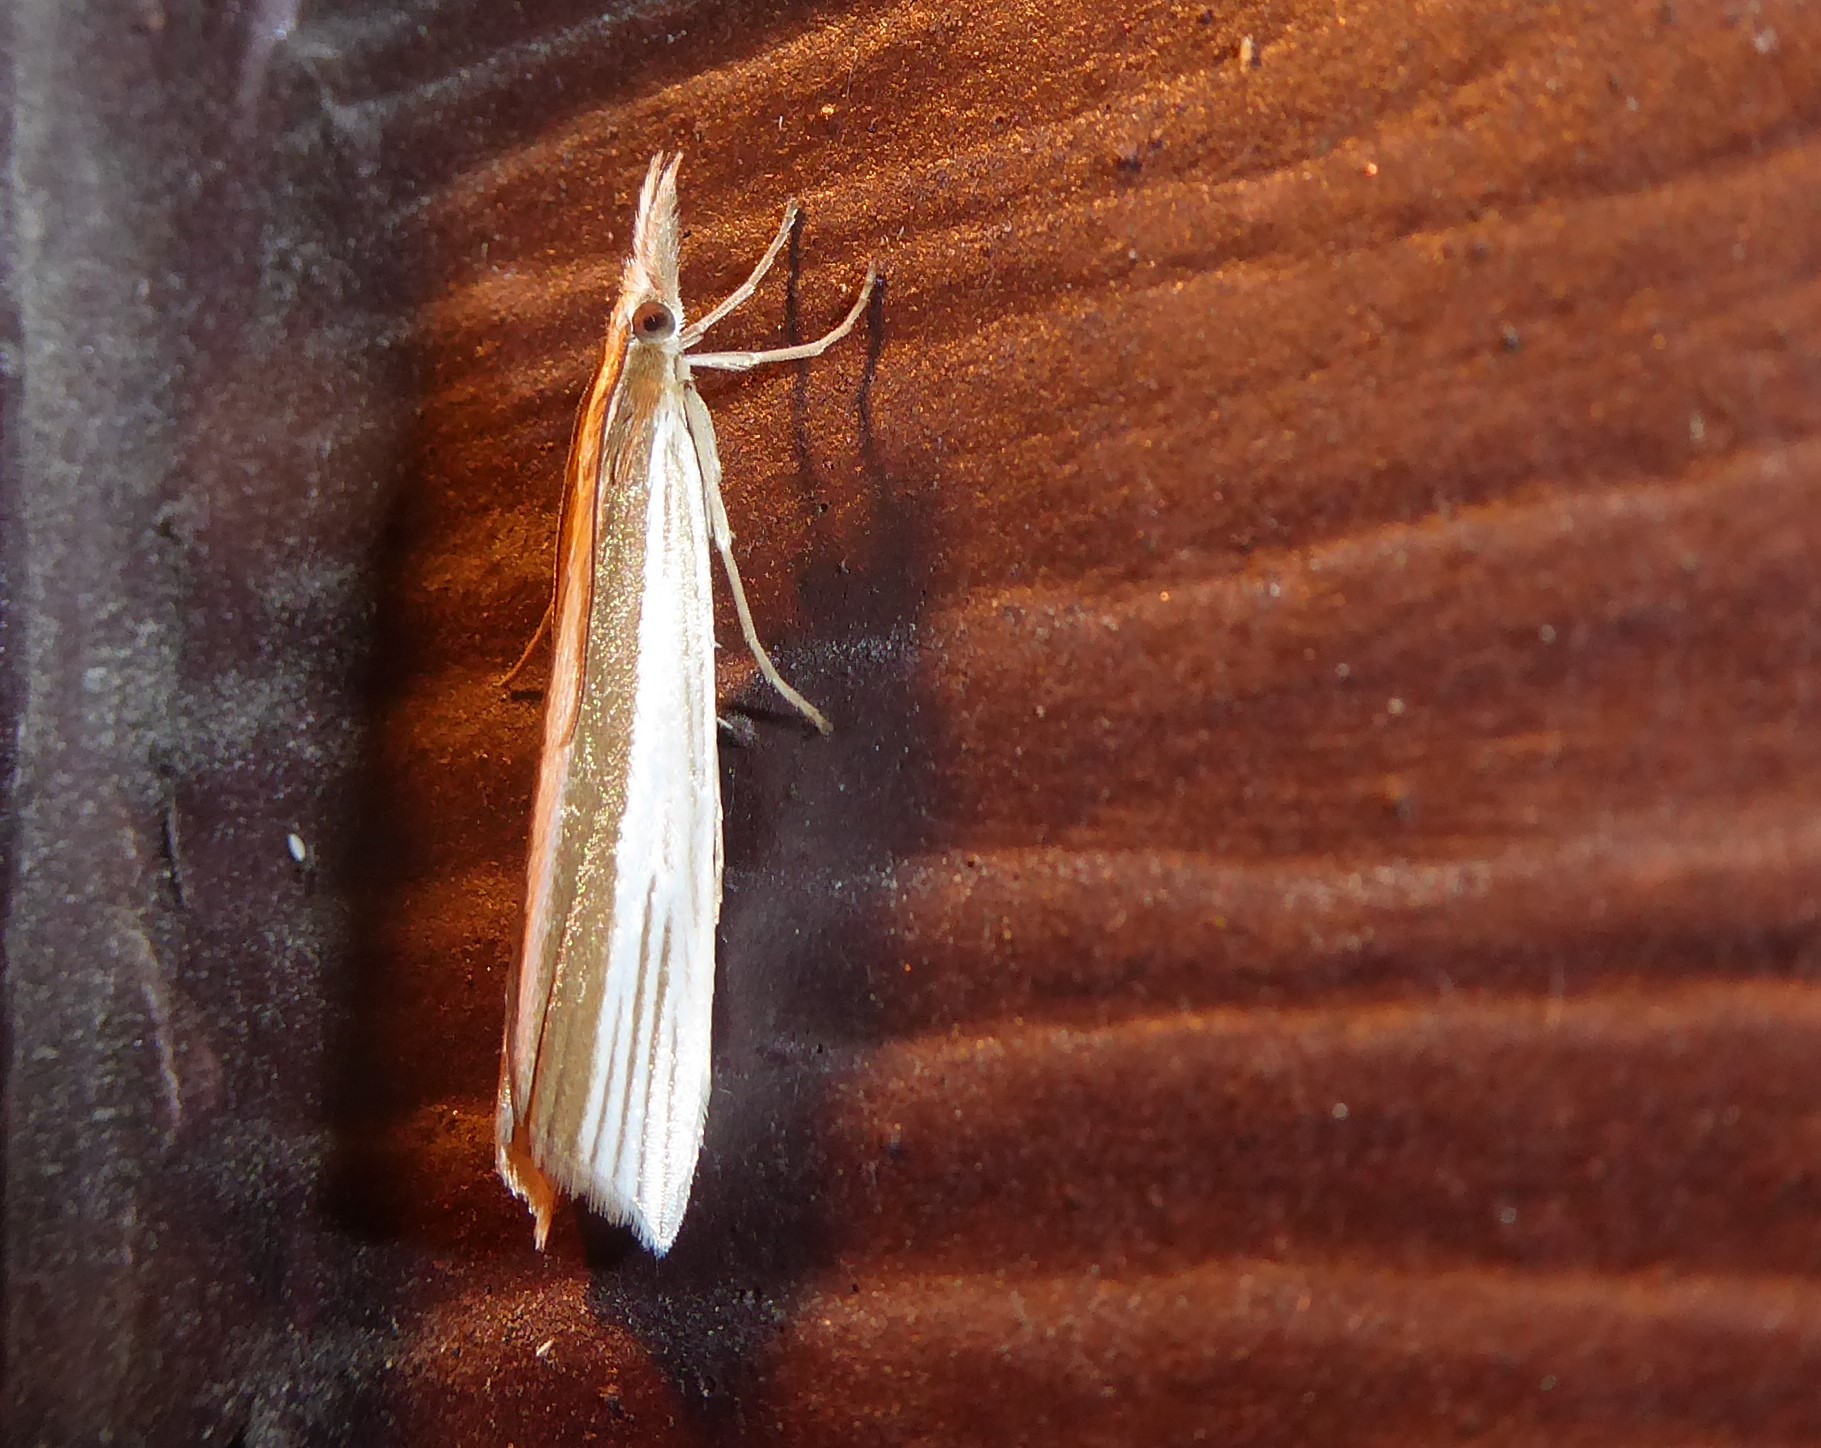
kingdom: Animalia
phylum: Arthropoda
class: Insecta
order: Lepidoptera
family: Crambidae
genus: Orocrambus
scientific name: Orocrambus angustipennis
